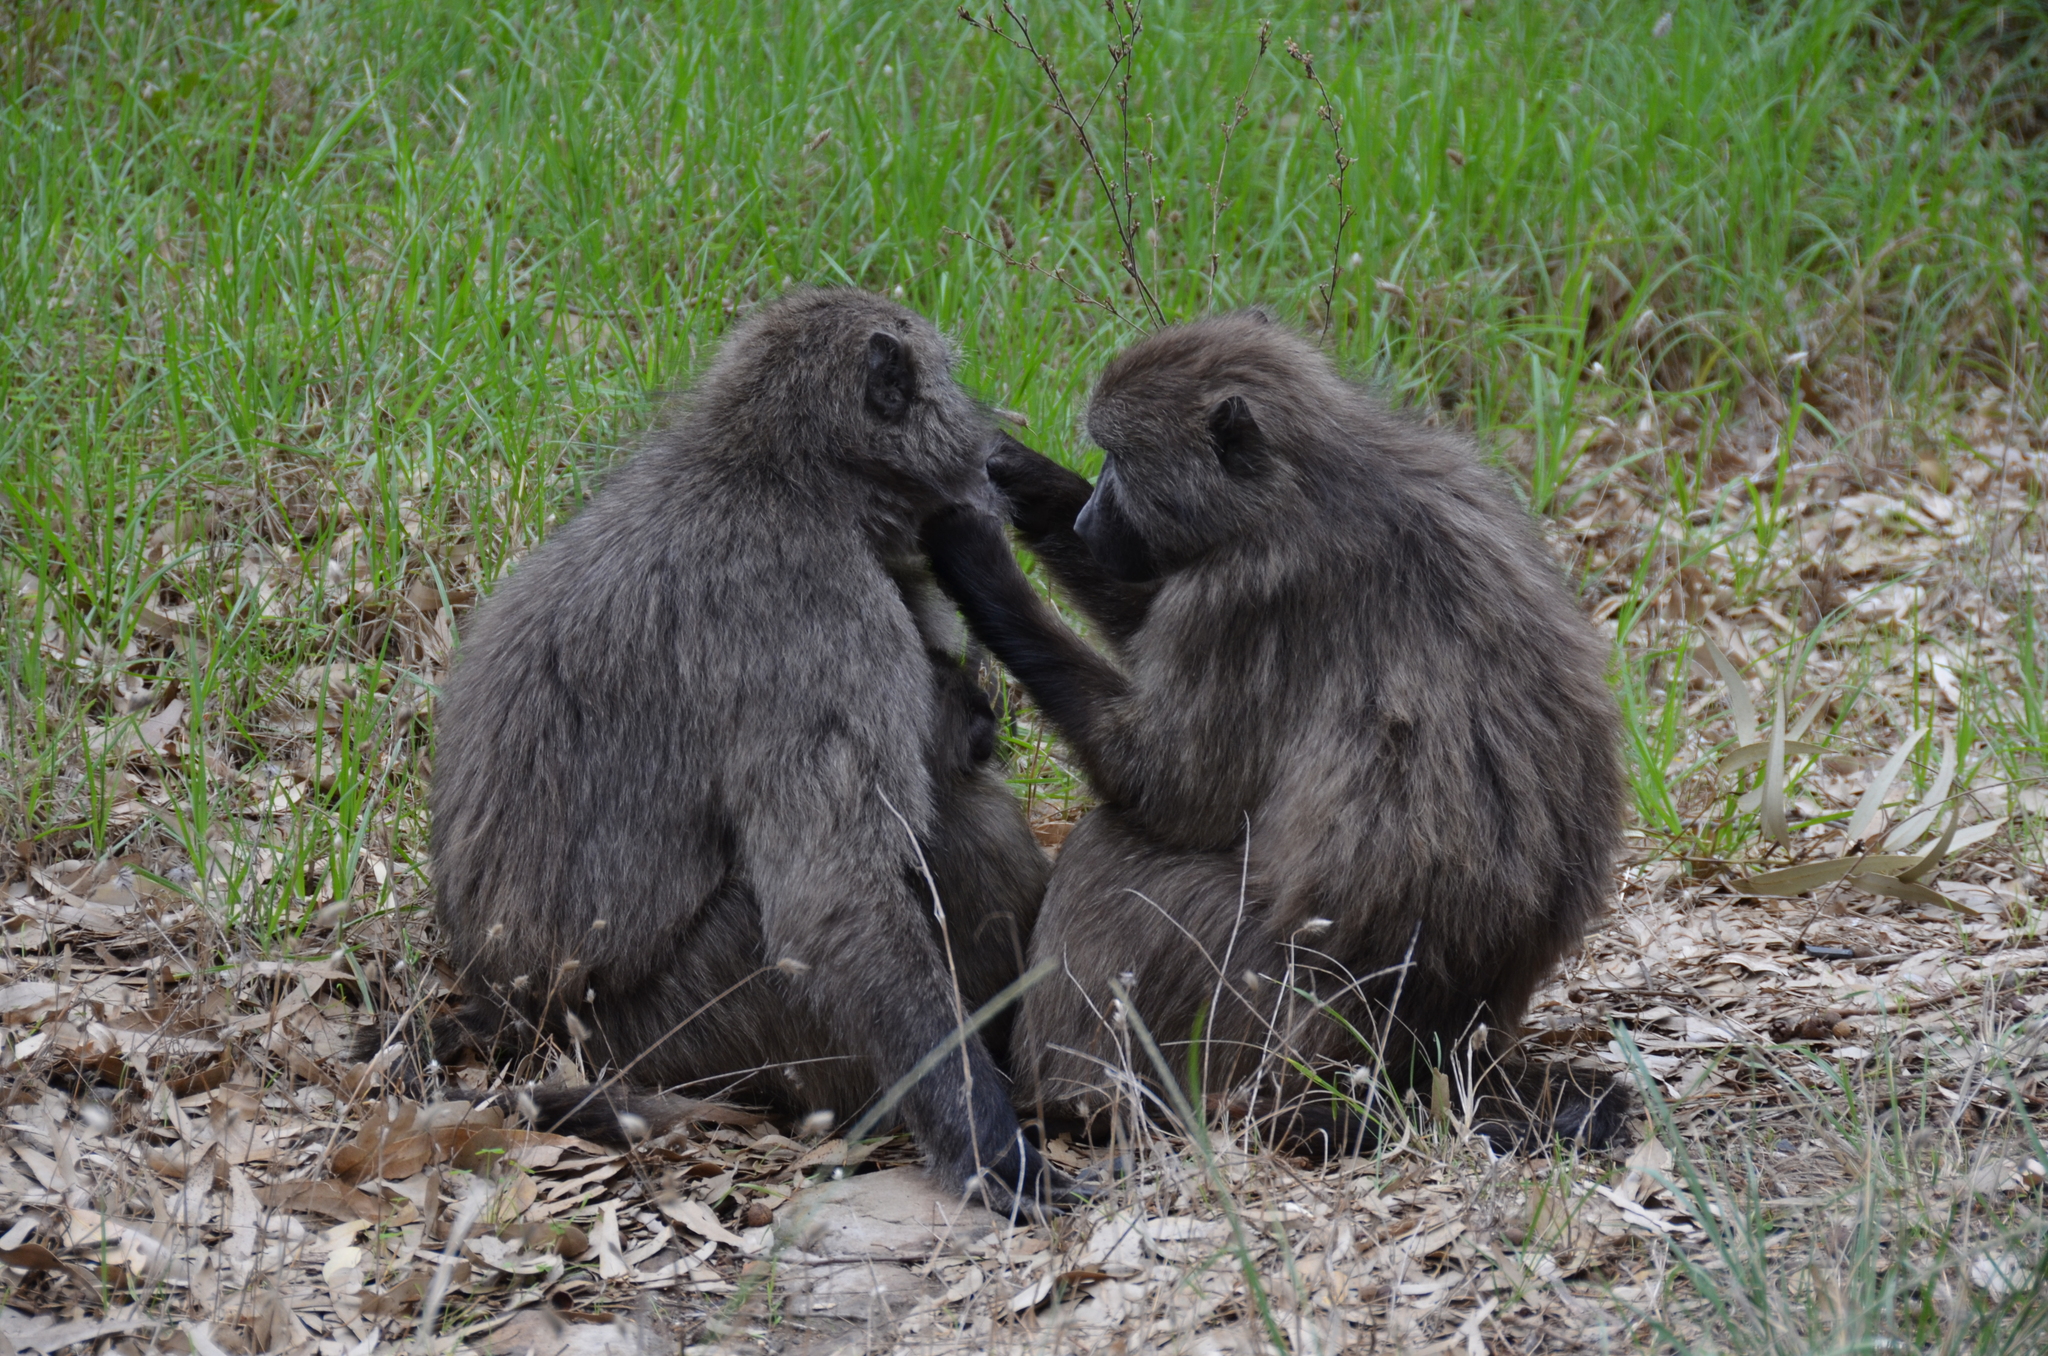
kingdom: Animalia
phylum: Chordata
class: Mammalia
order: Primates
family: Cercopithecidae
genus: Papio
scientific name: Papio ursinus
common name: Chacma baboon
